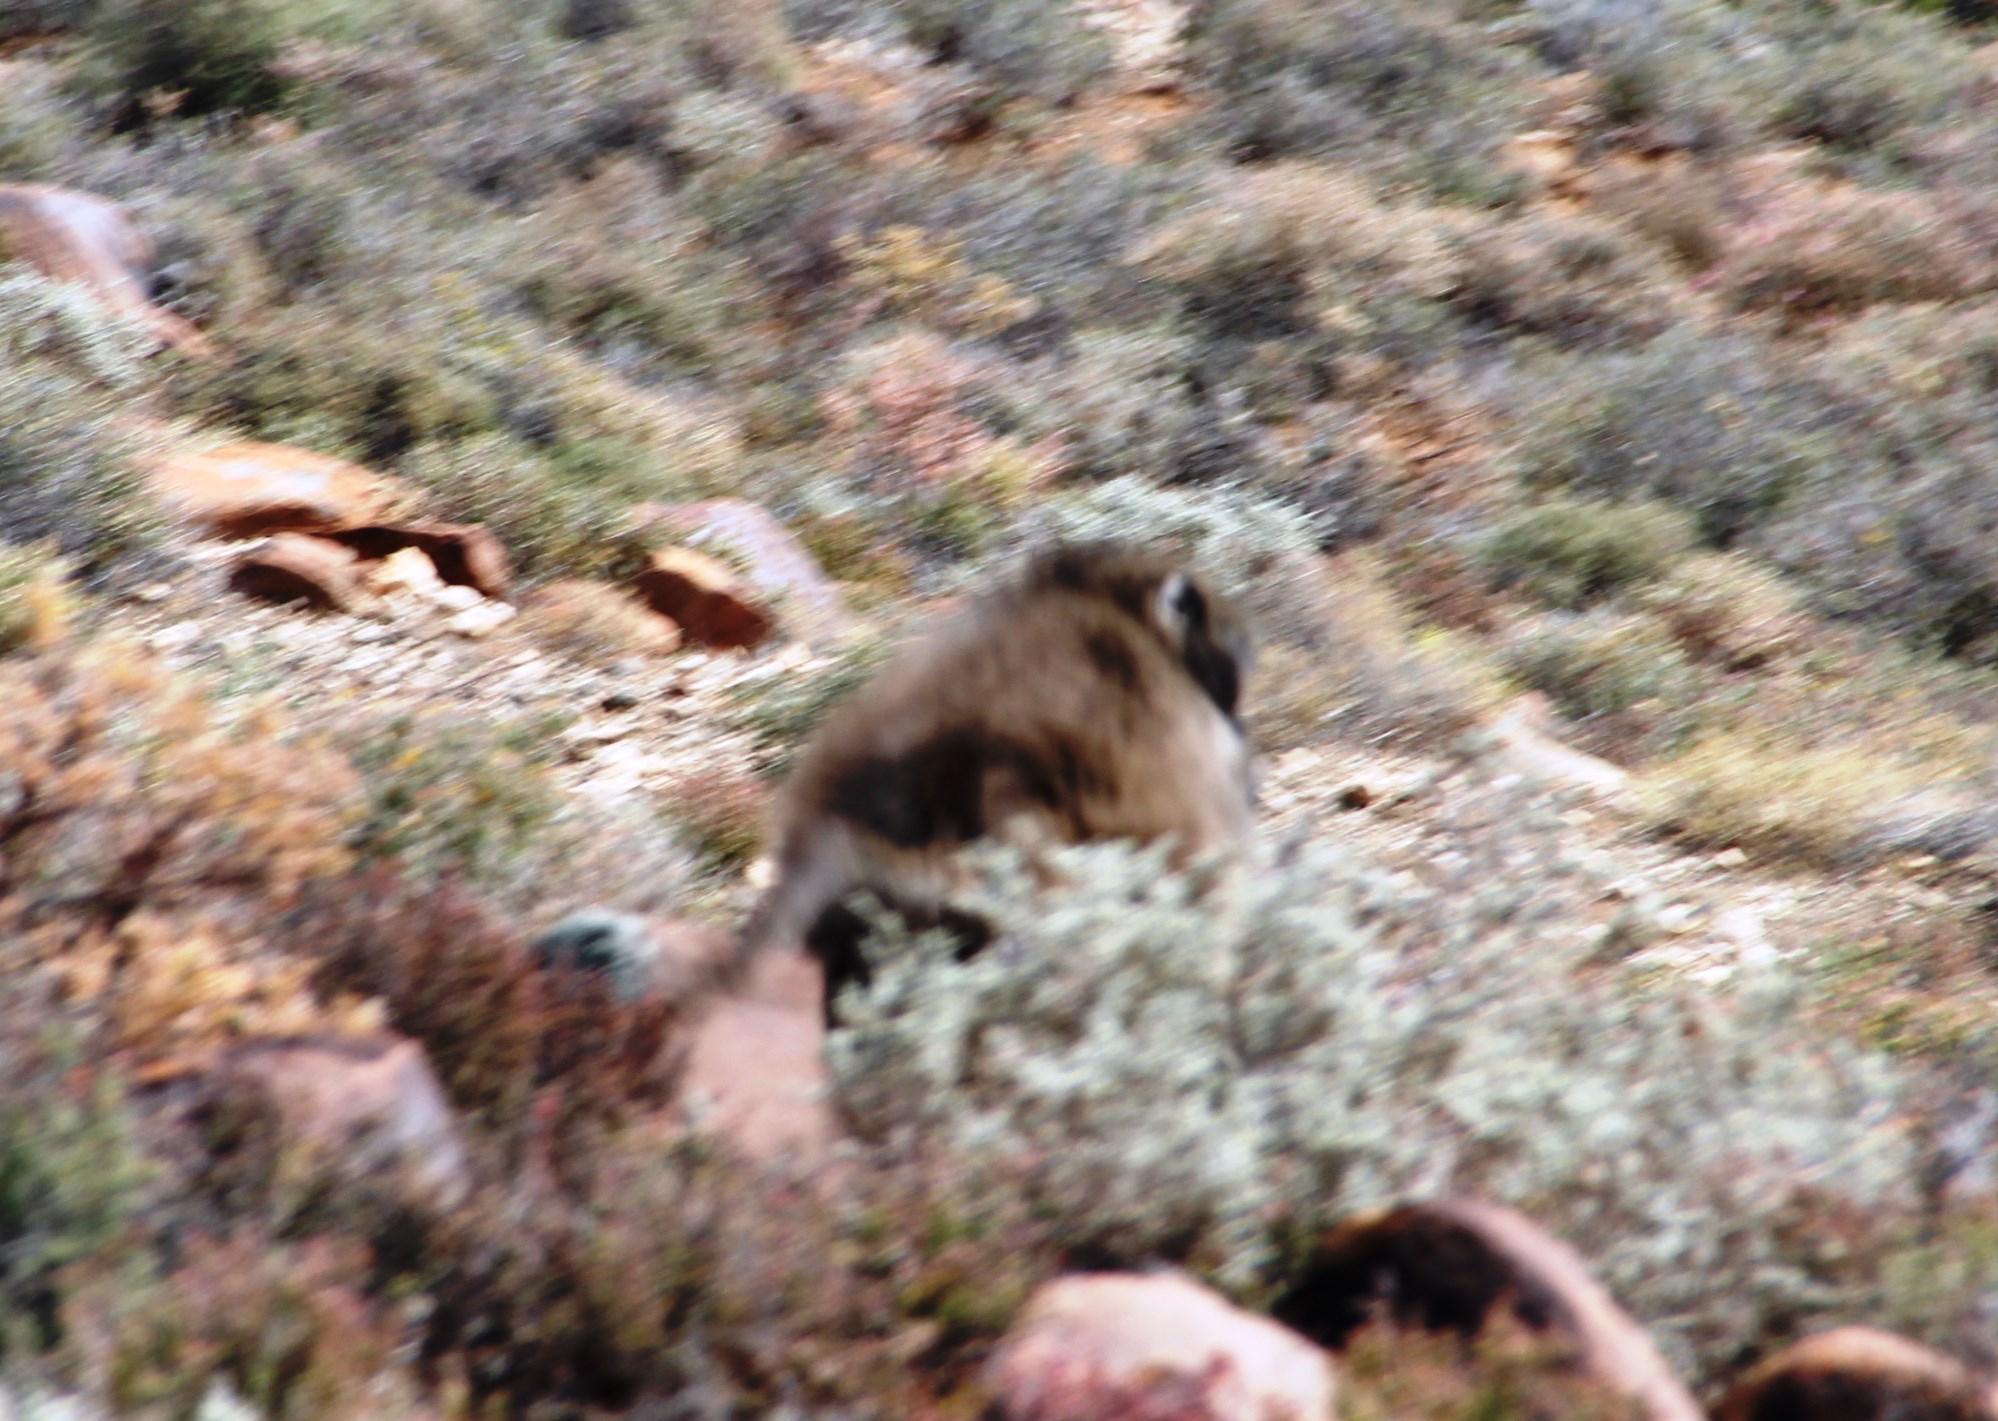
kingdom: Animalia
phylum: Chordata
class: Mammalia
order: Primates
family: Cercopithecidae
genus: Papio
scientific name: Papio ursinus
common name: Chacma baboon
